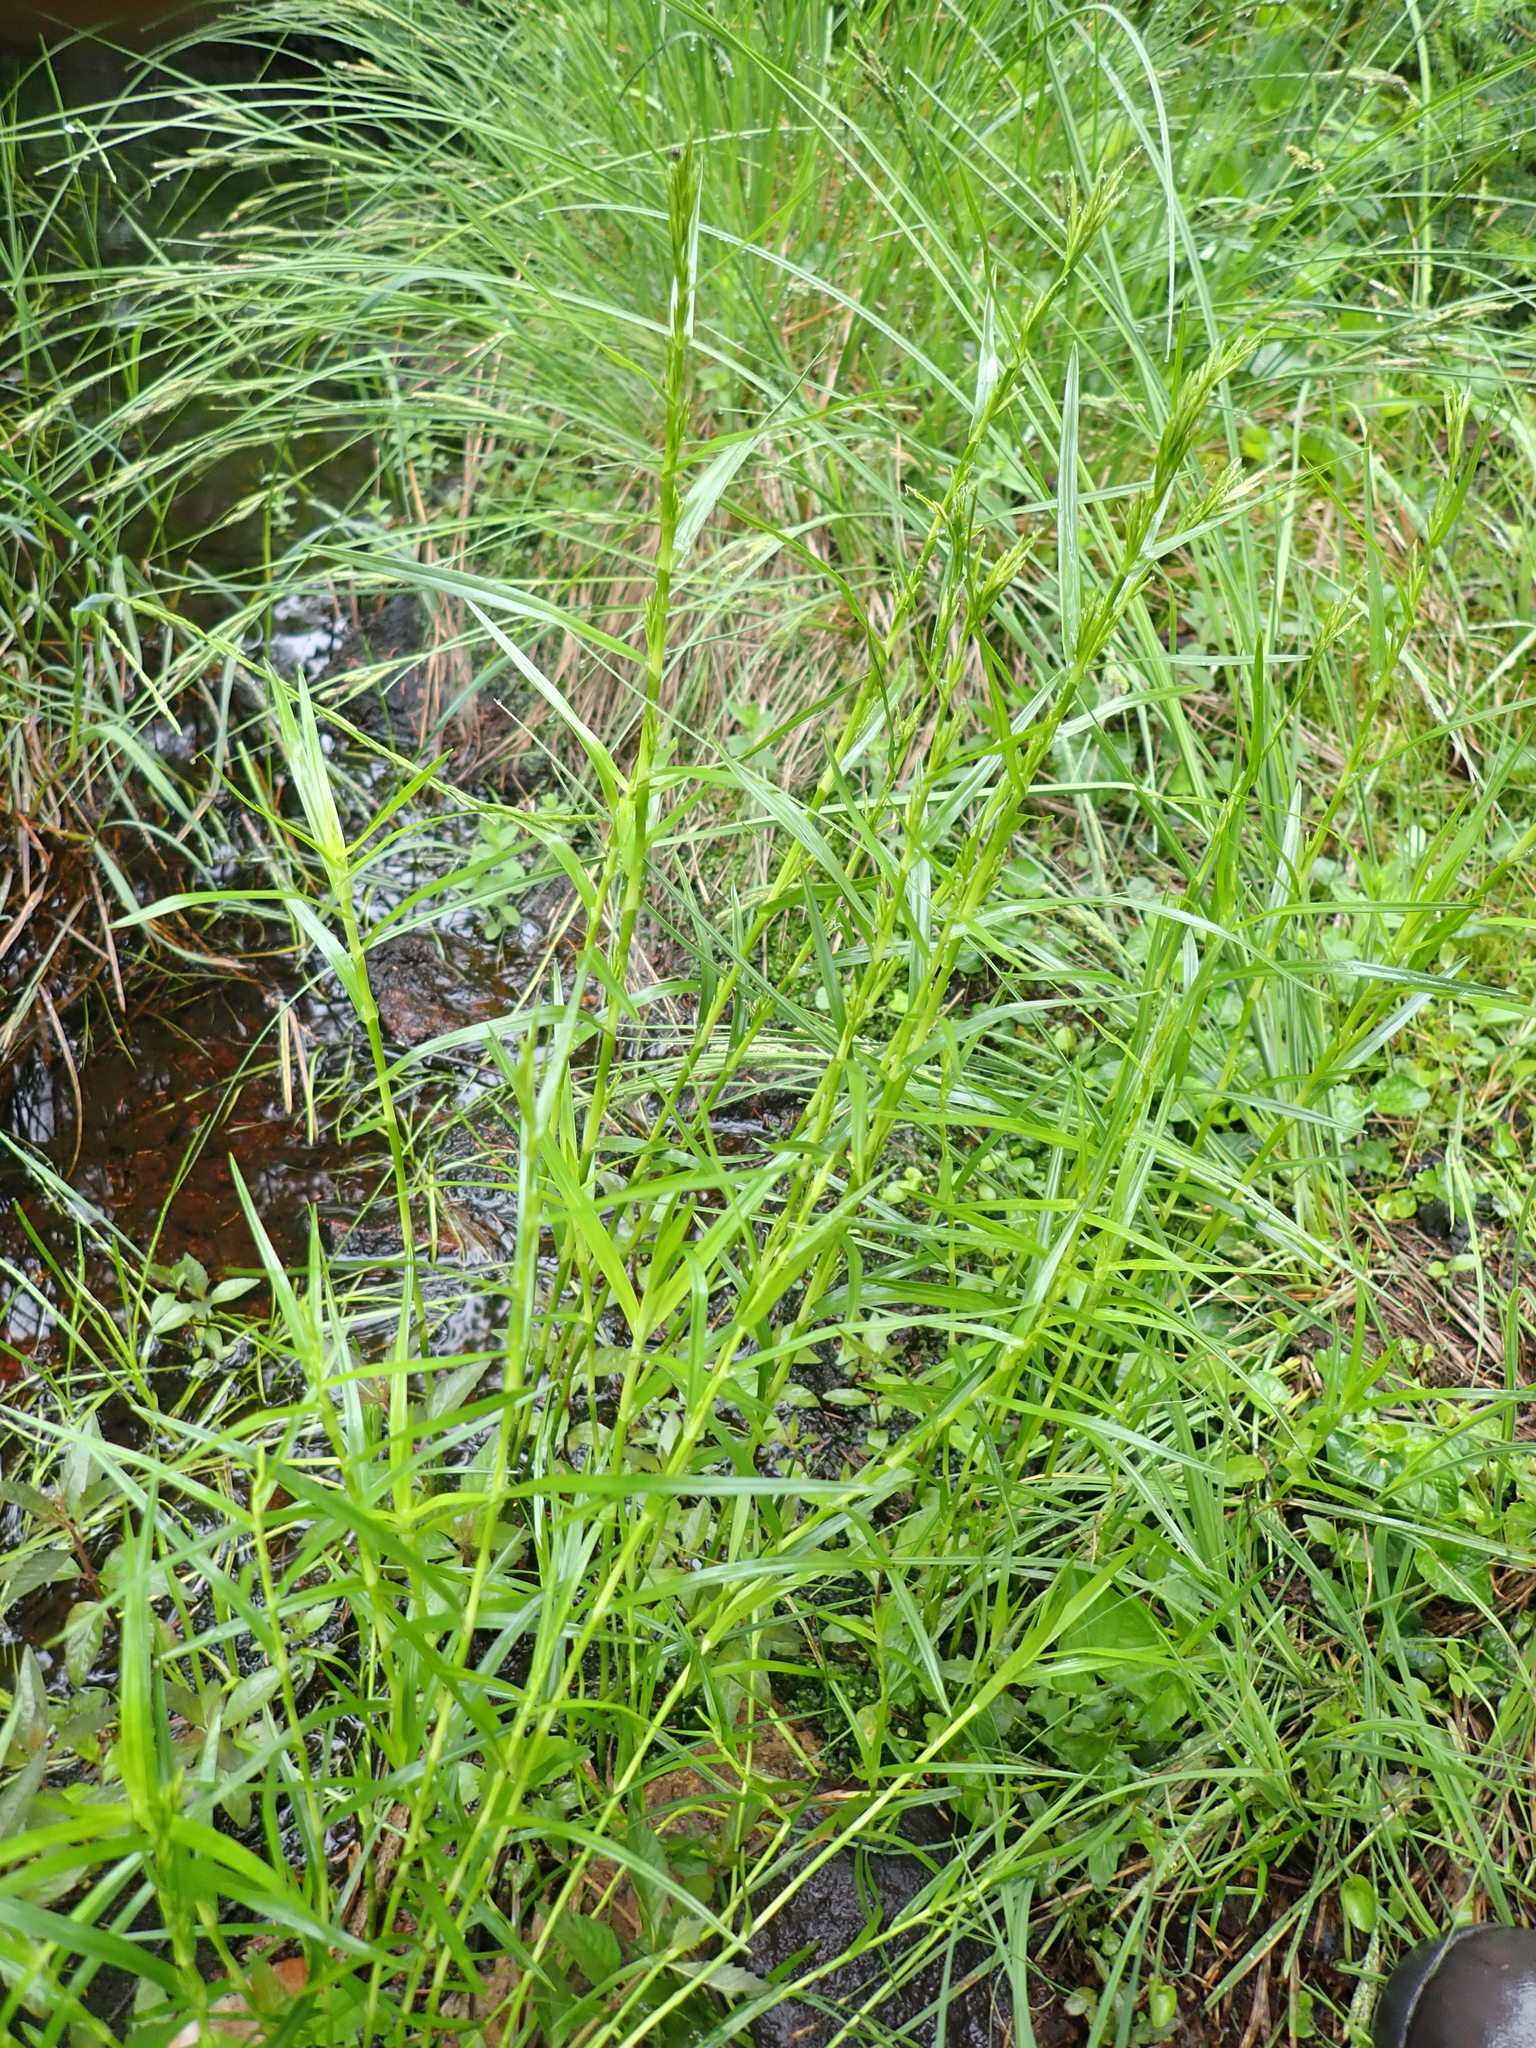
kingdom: Plantae
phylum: Tracheophyta
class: Liliopsida
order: Poales
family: Cyperaceae
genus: Dulichium
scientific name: Dulichium arundinaceum
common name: Three-way sedge
